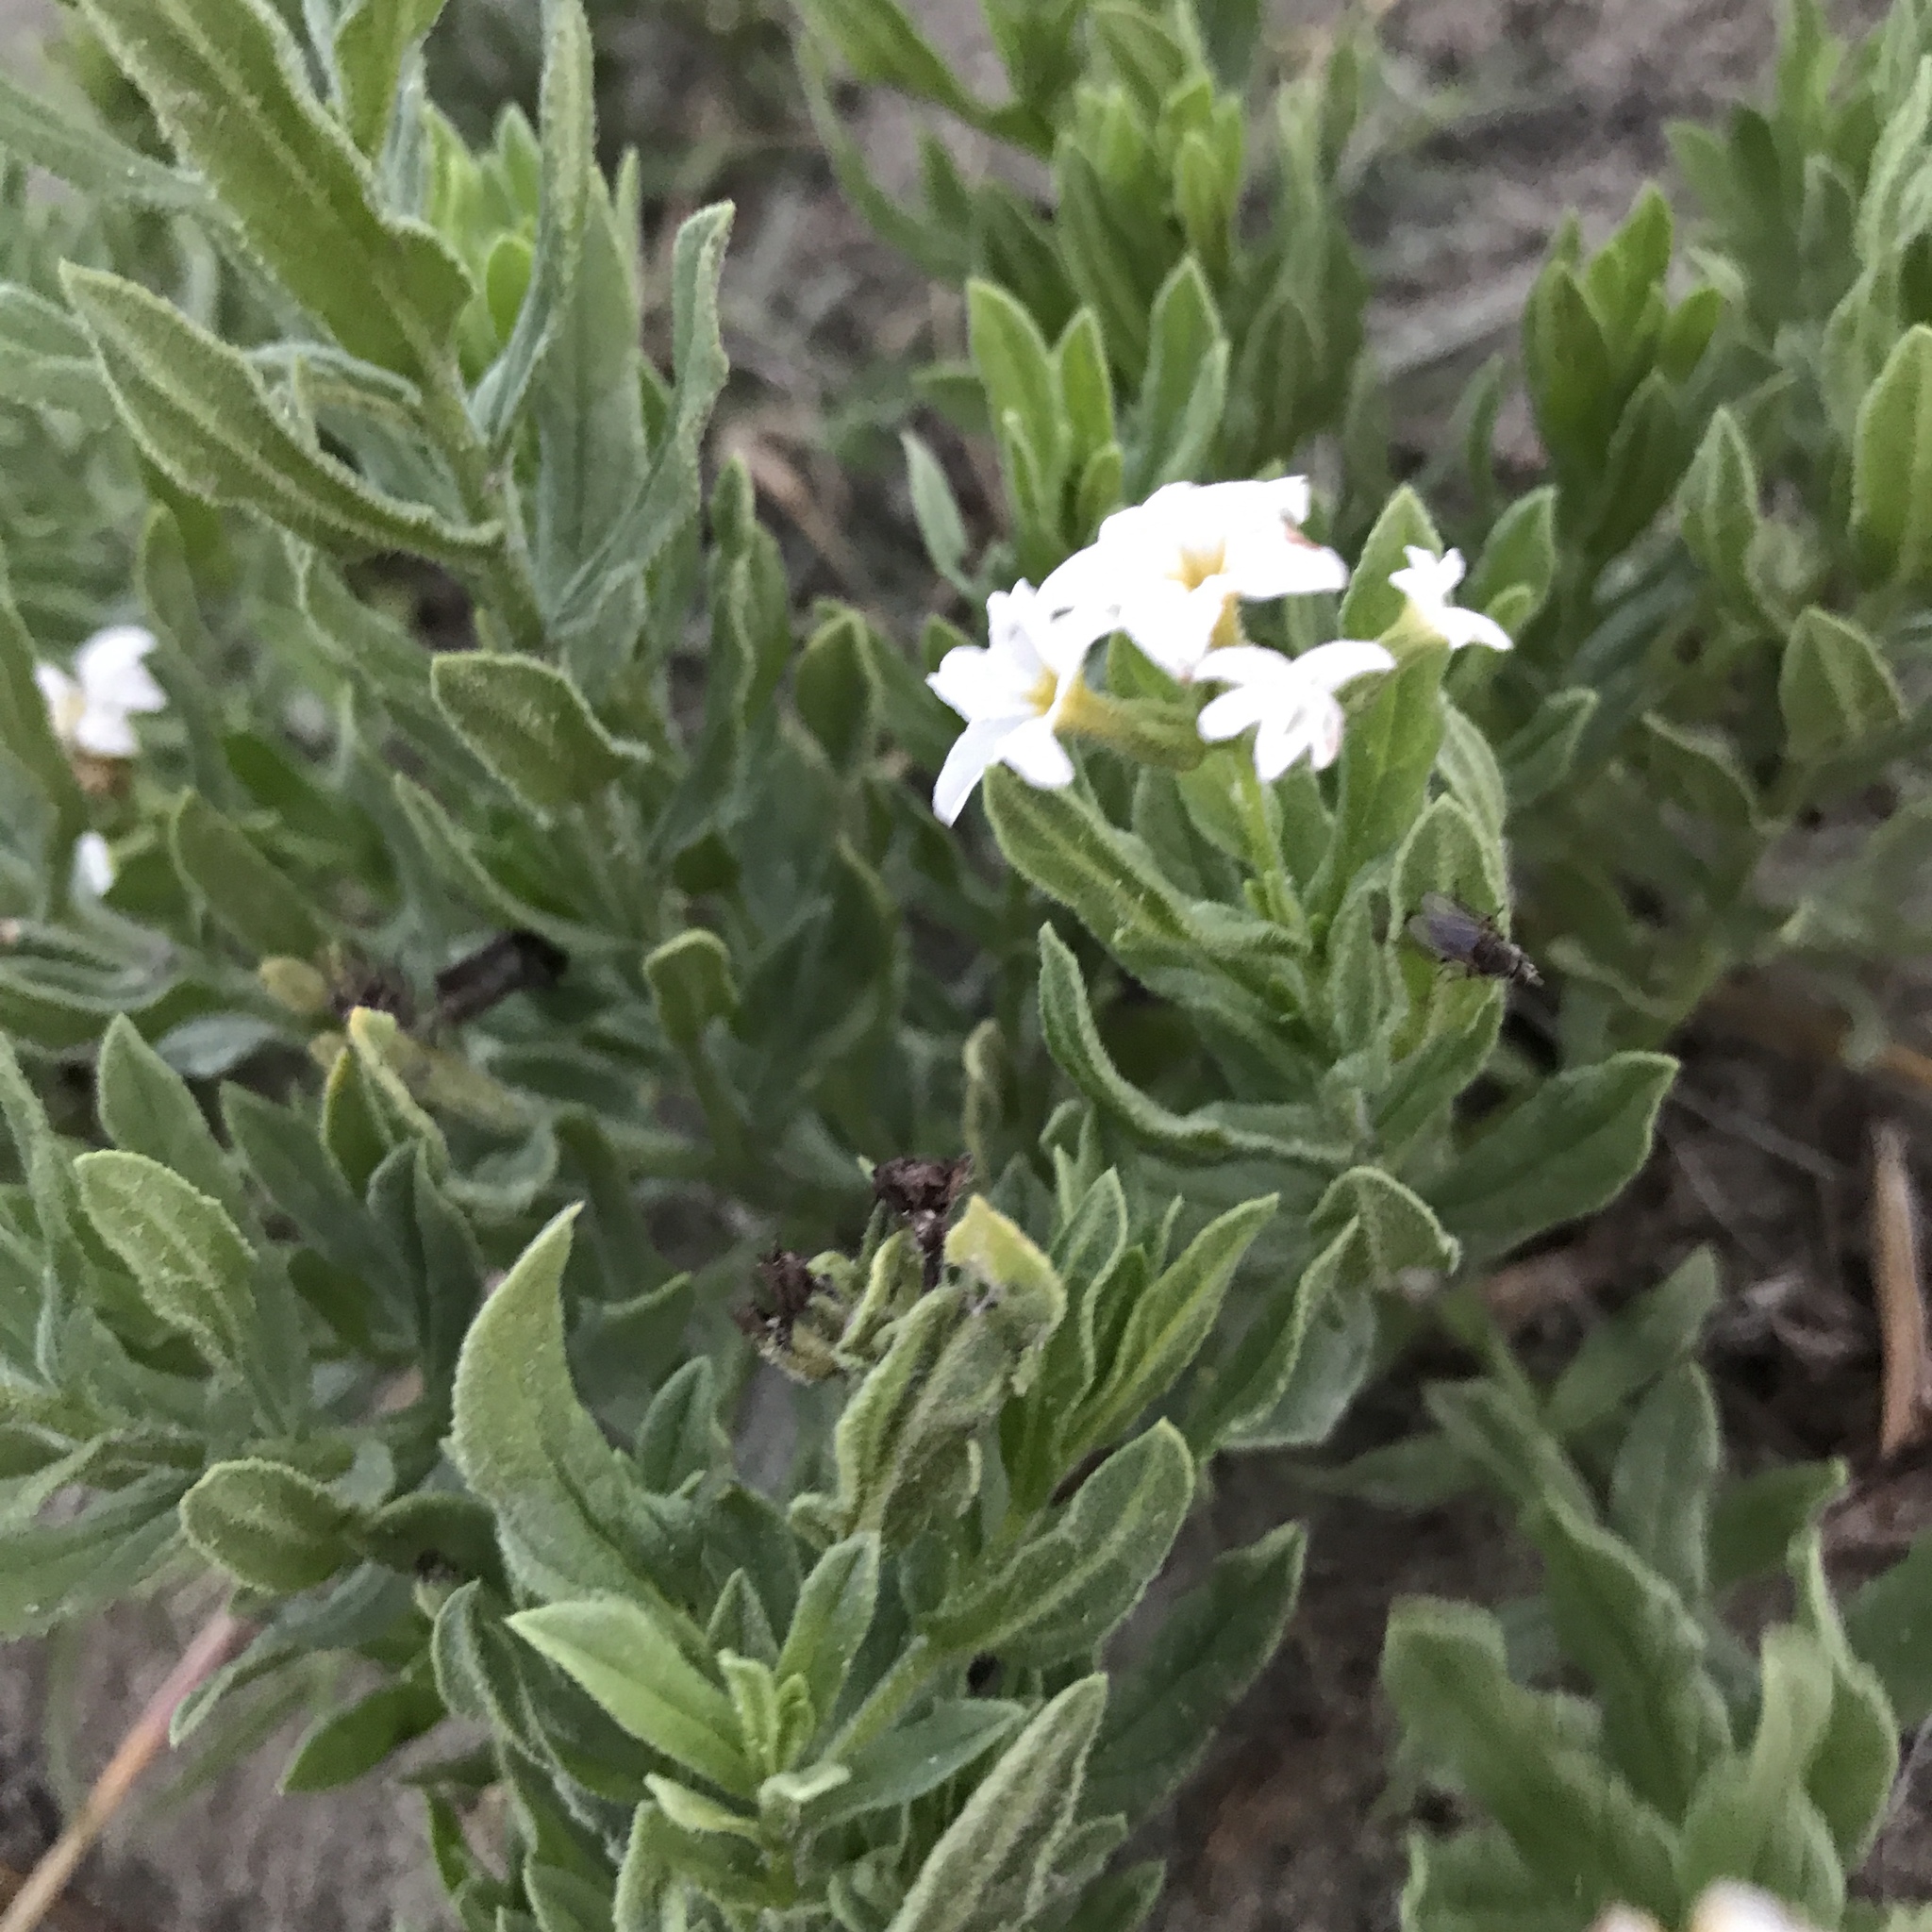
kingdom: Plantae
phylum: Tracheophyta
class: Magnoliopsida
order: Boraginales
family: Heliotropiaceae
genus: Tournefortia
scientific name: Tournefortia sibirica
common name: Siberian sea rosemary
